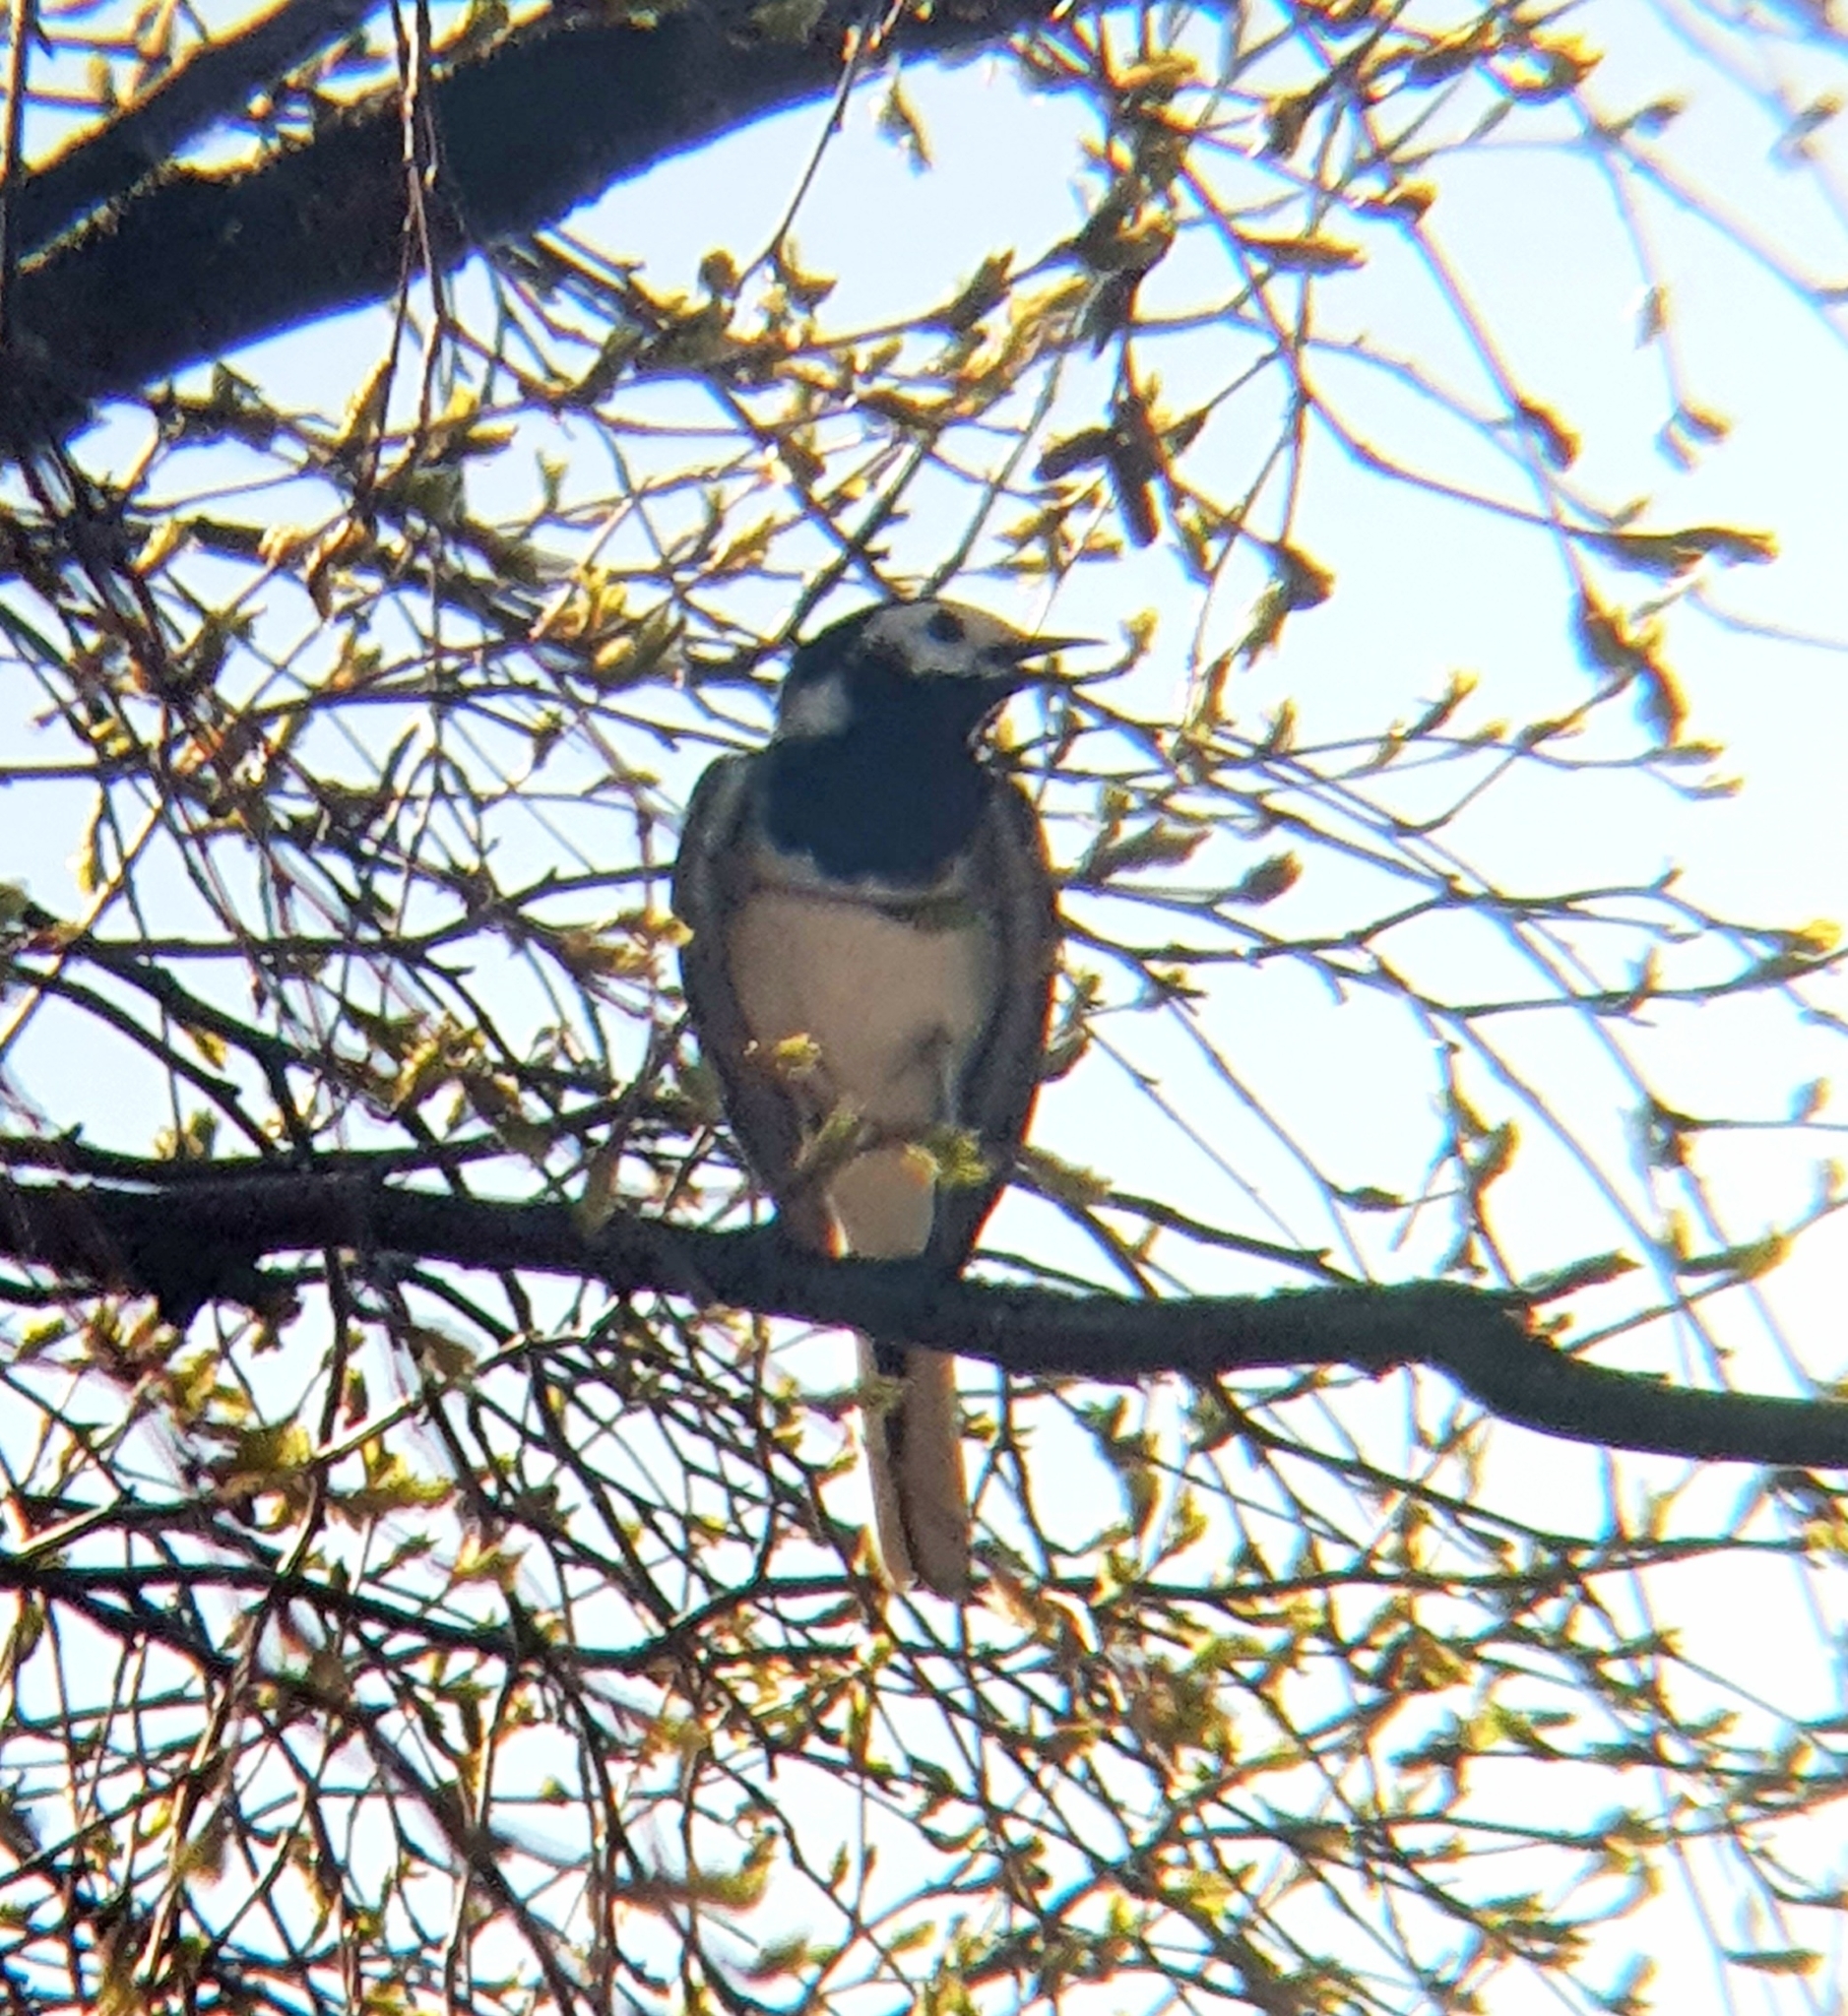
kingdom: Animalia
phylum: Chordata
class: Aves
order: Passeriformes
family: Motacillidae
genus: Motacilla
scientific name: Motacilla alba
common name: White wagtail
